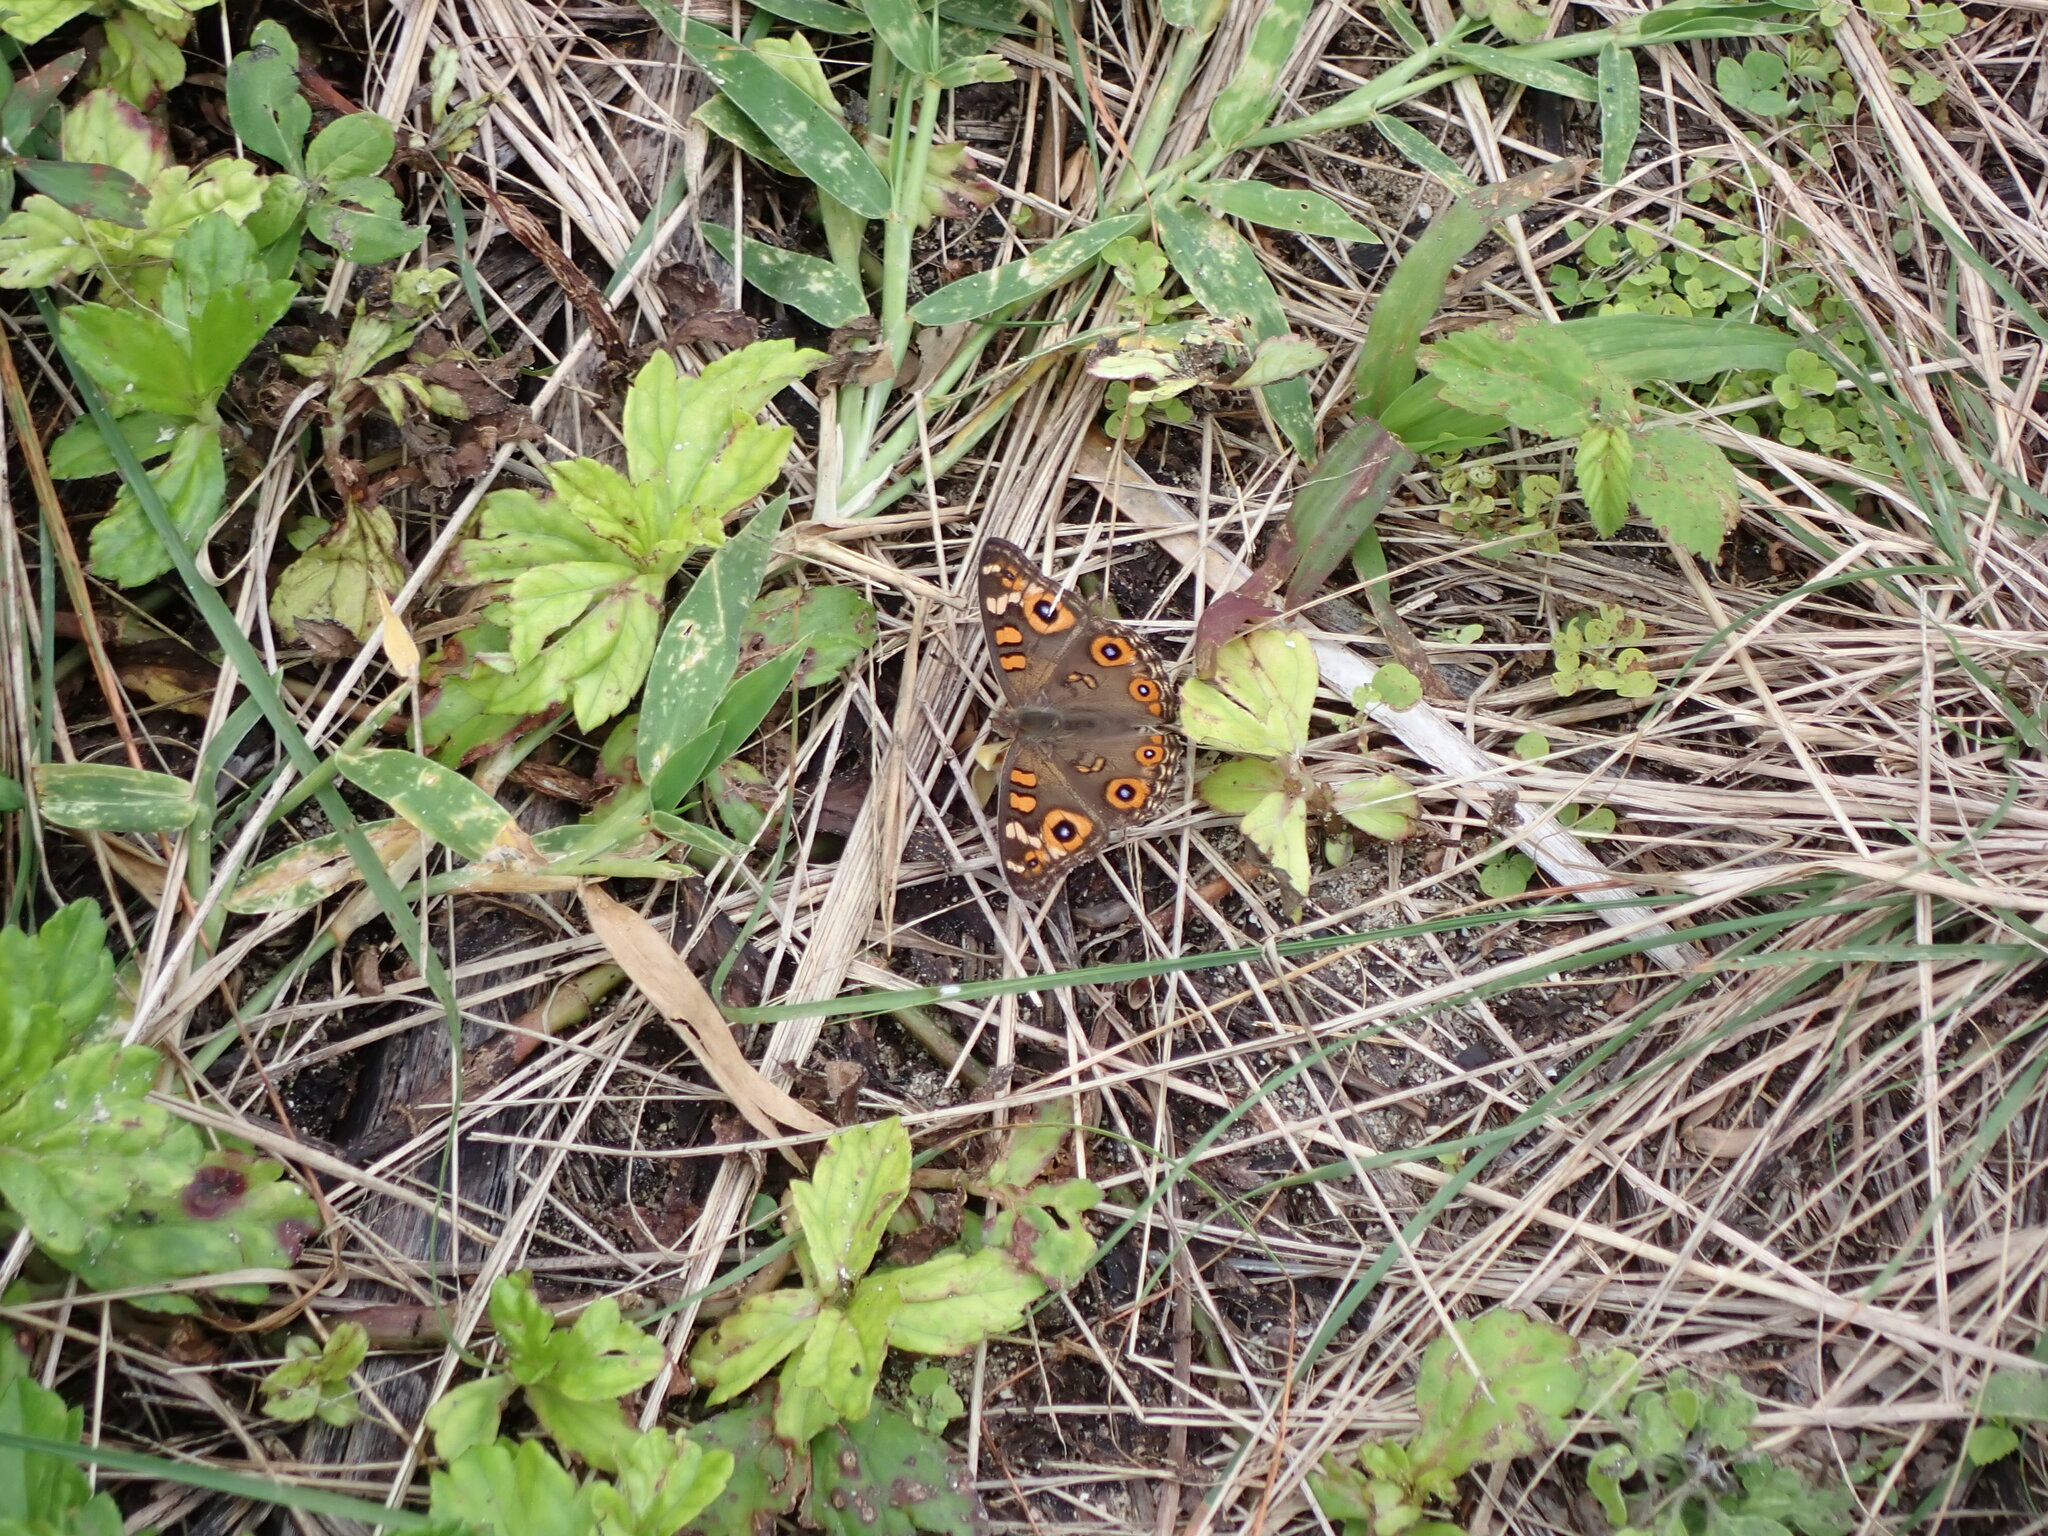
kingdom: Animalia
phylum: Arthropoda
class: Insecta
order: Lepidoptera
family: Nymphalidae
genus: Junonia
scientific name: Junonia villida
